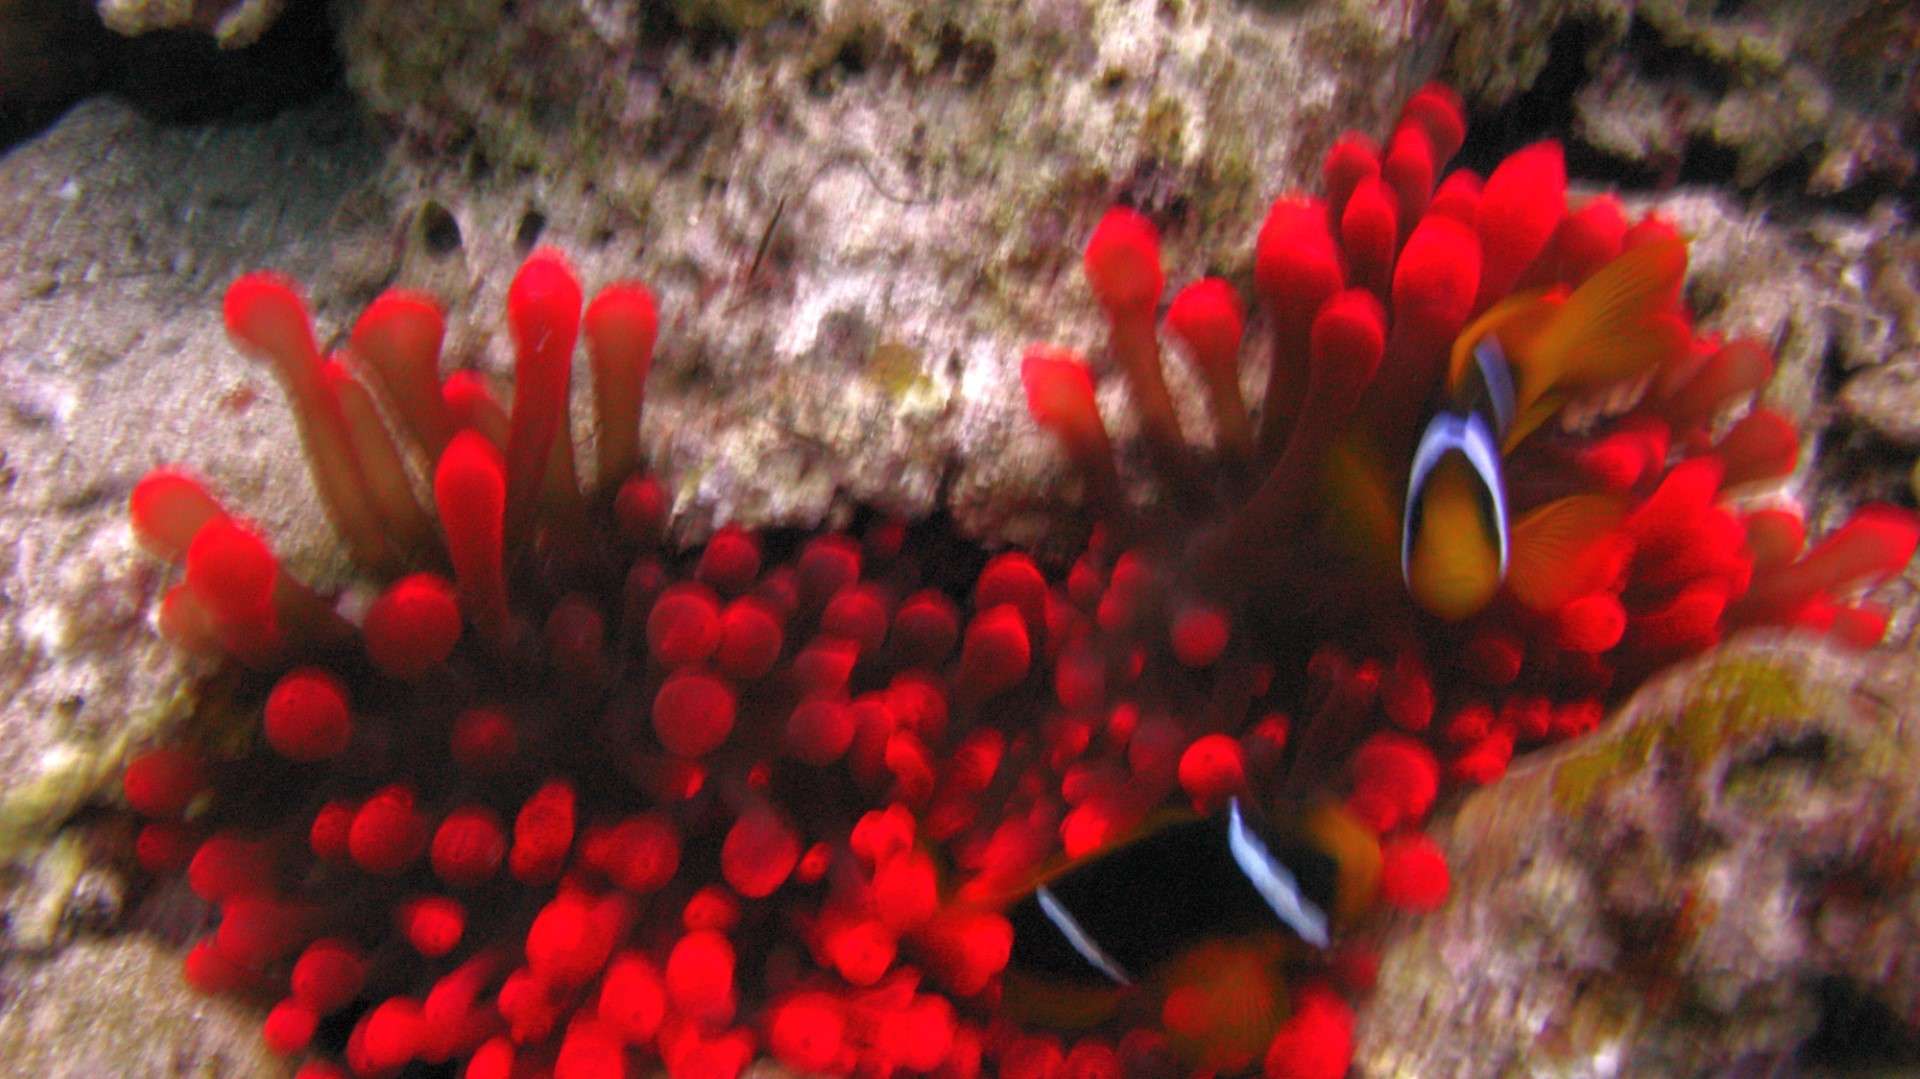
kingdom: Animalia
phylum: Chordata
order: Perciformes
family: Pomacentridae
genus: Amphiprion
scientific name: Amphiprion bicinctus
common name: Two-banded anemonefish
